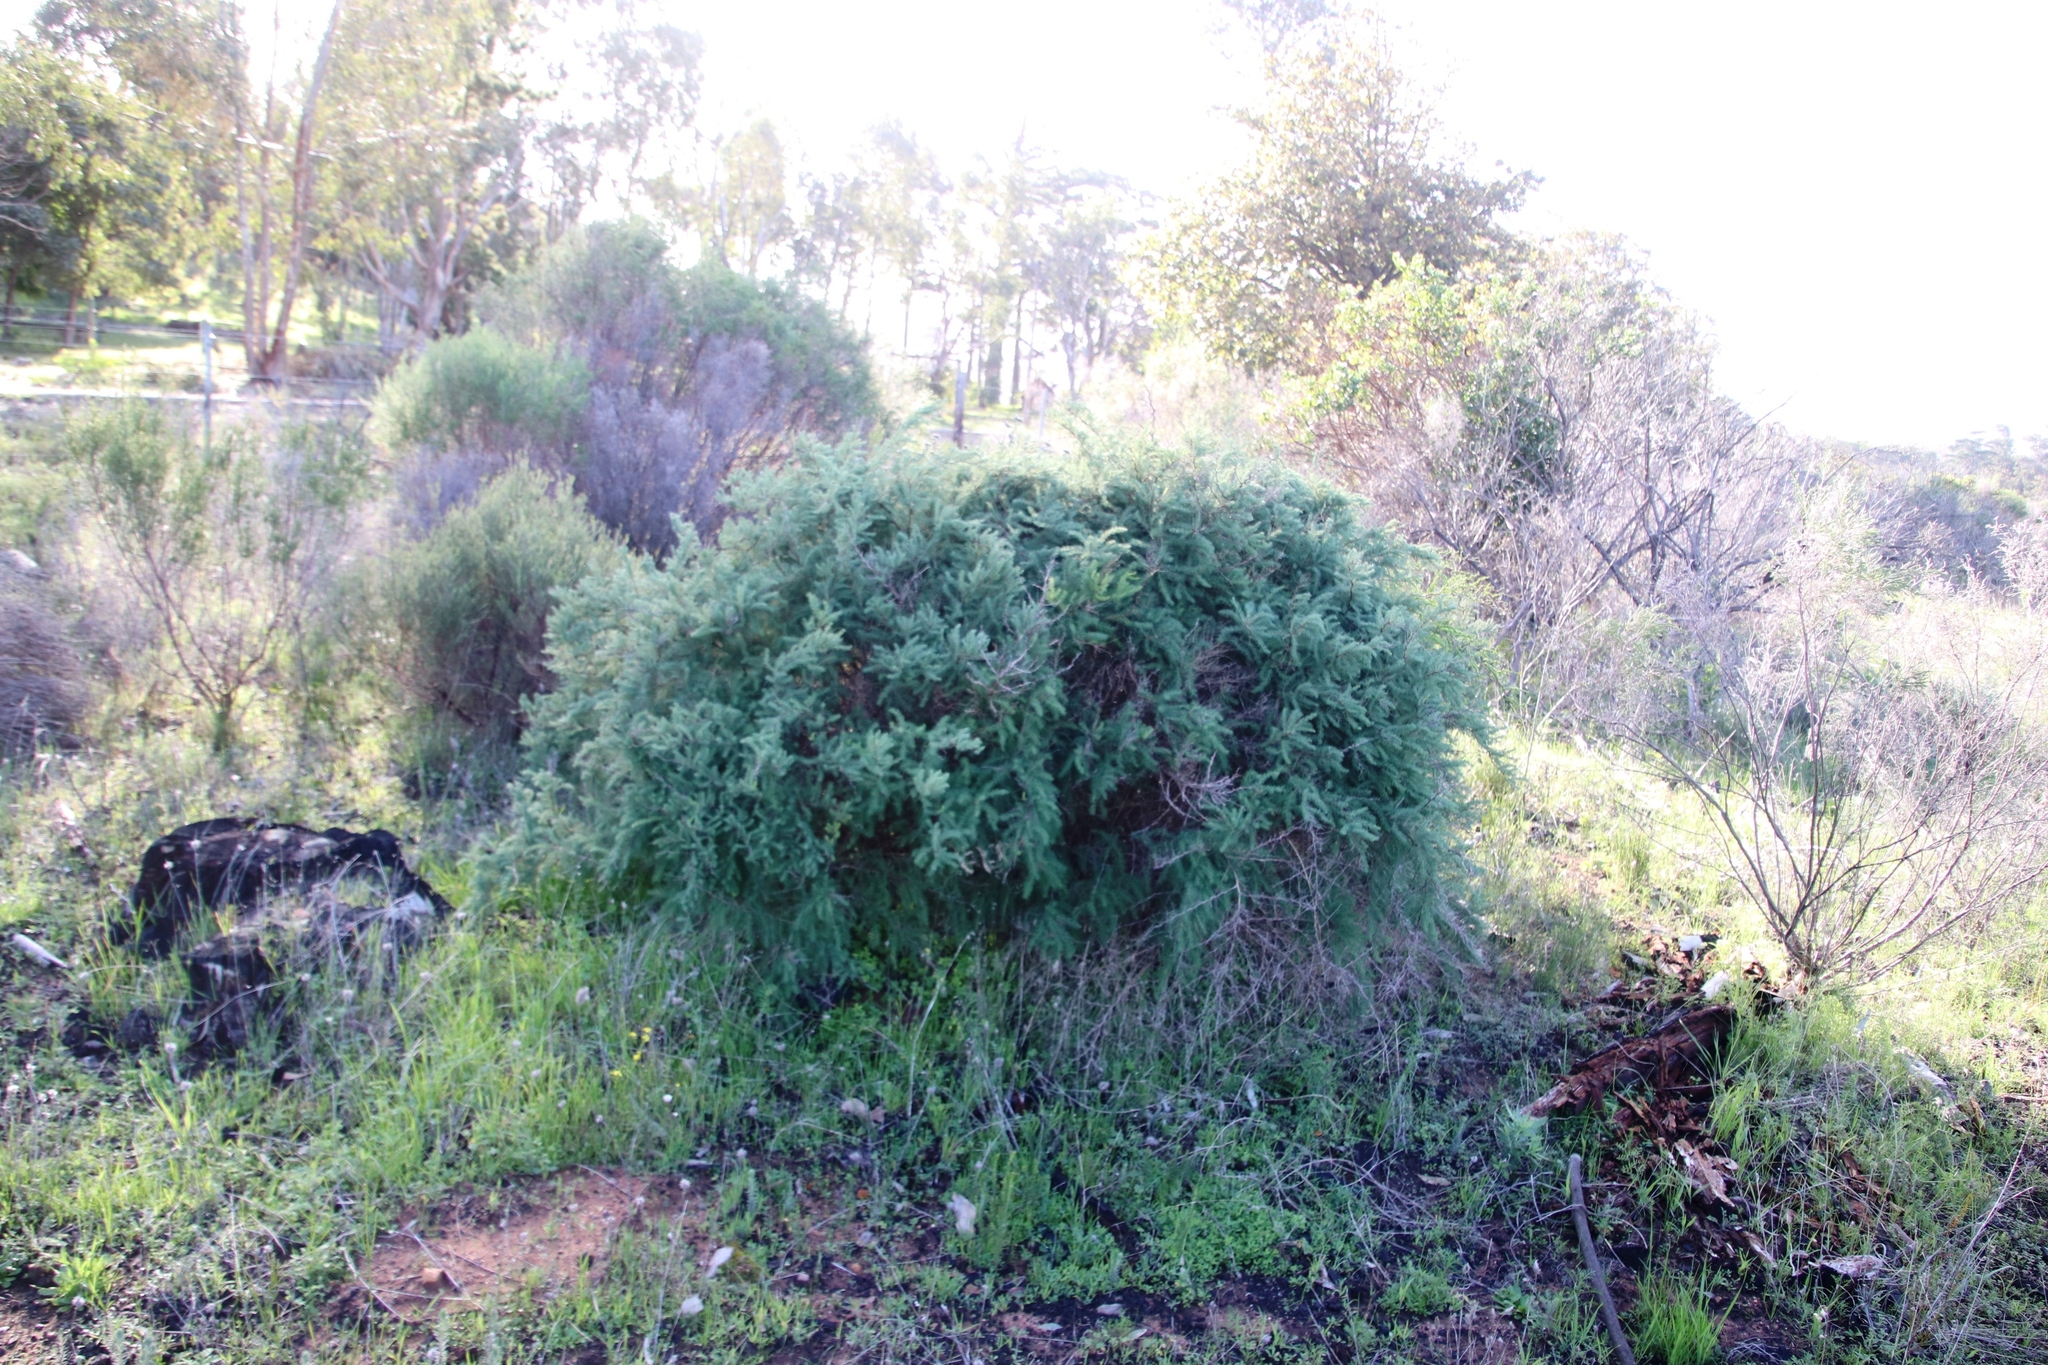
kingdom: Plantae
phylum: Tracheophyta
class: Liliopsida
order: Asparagales
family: Asparagaceae
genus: Asparagus
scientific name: Asparagus rubicundus
